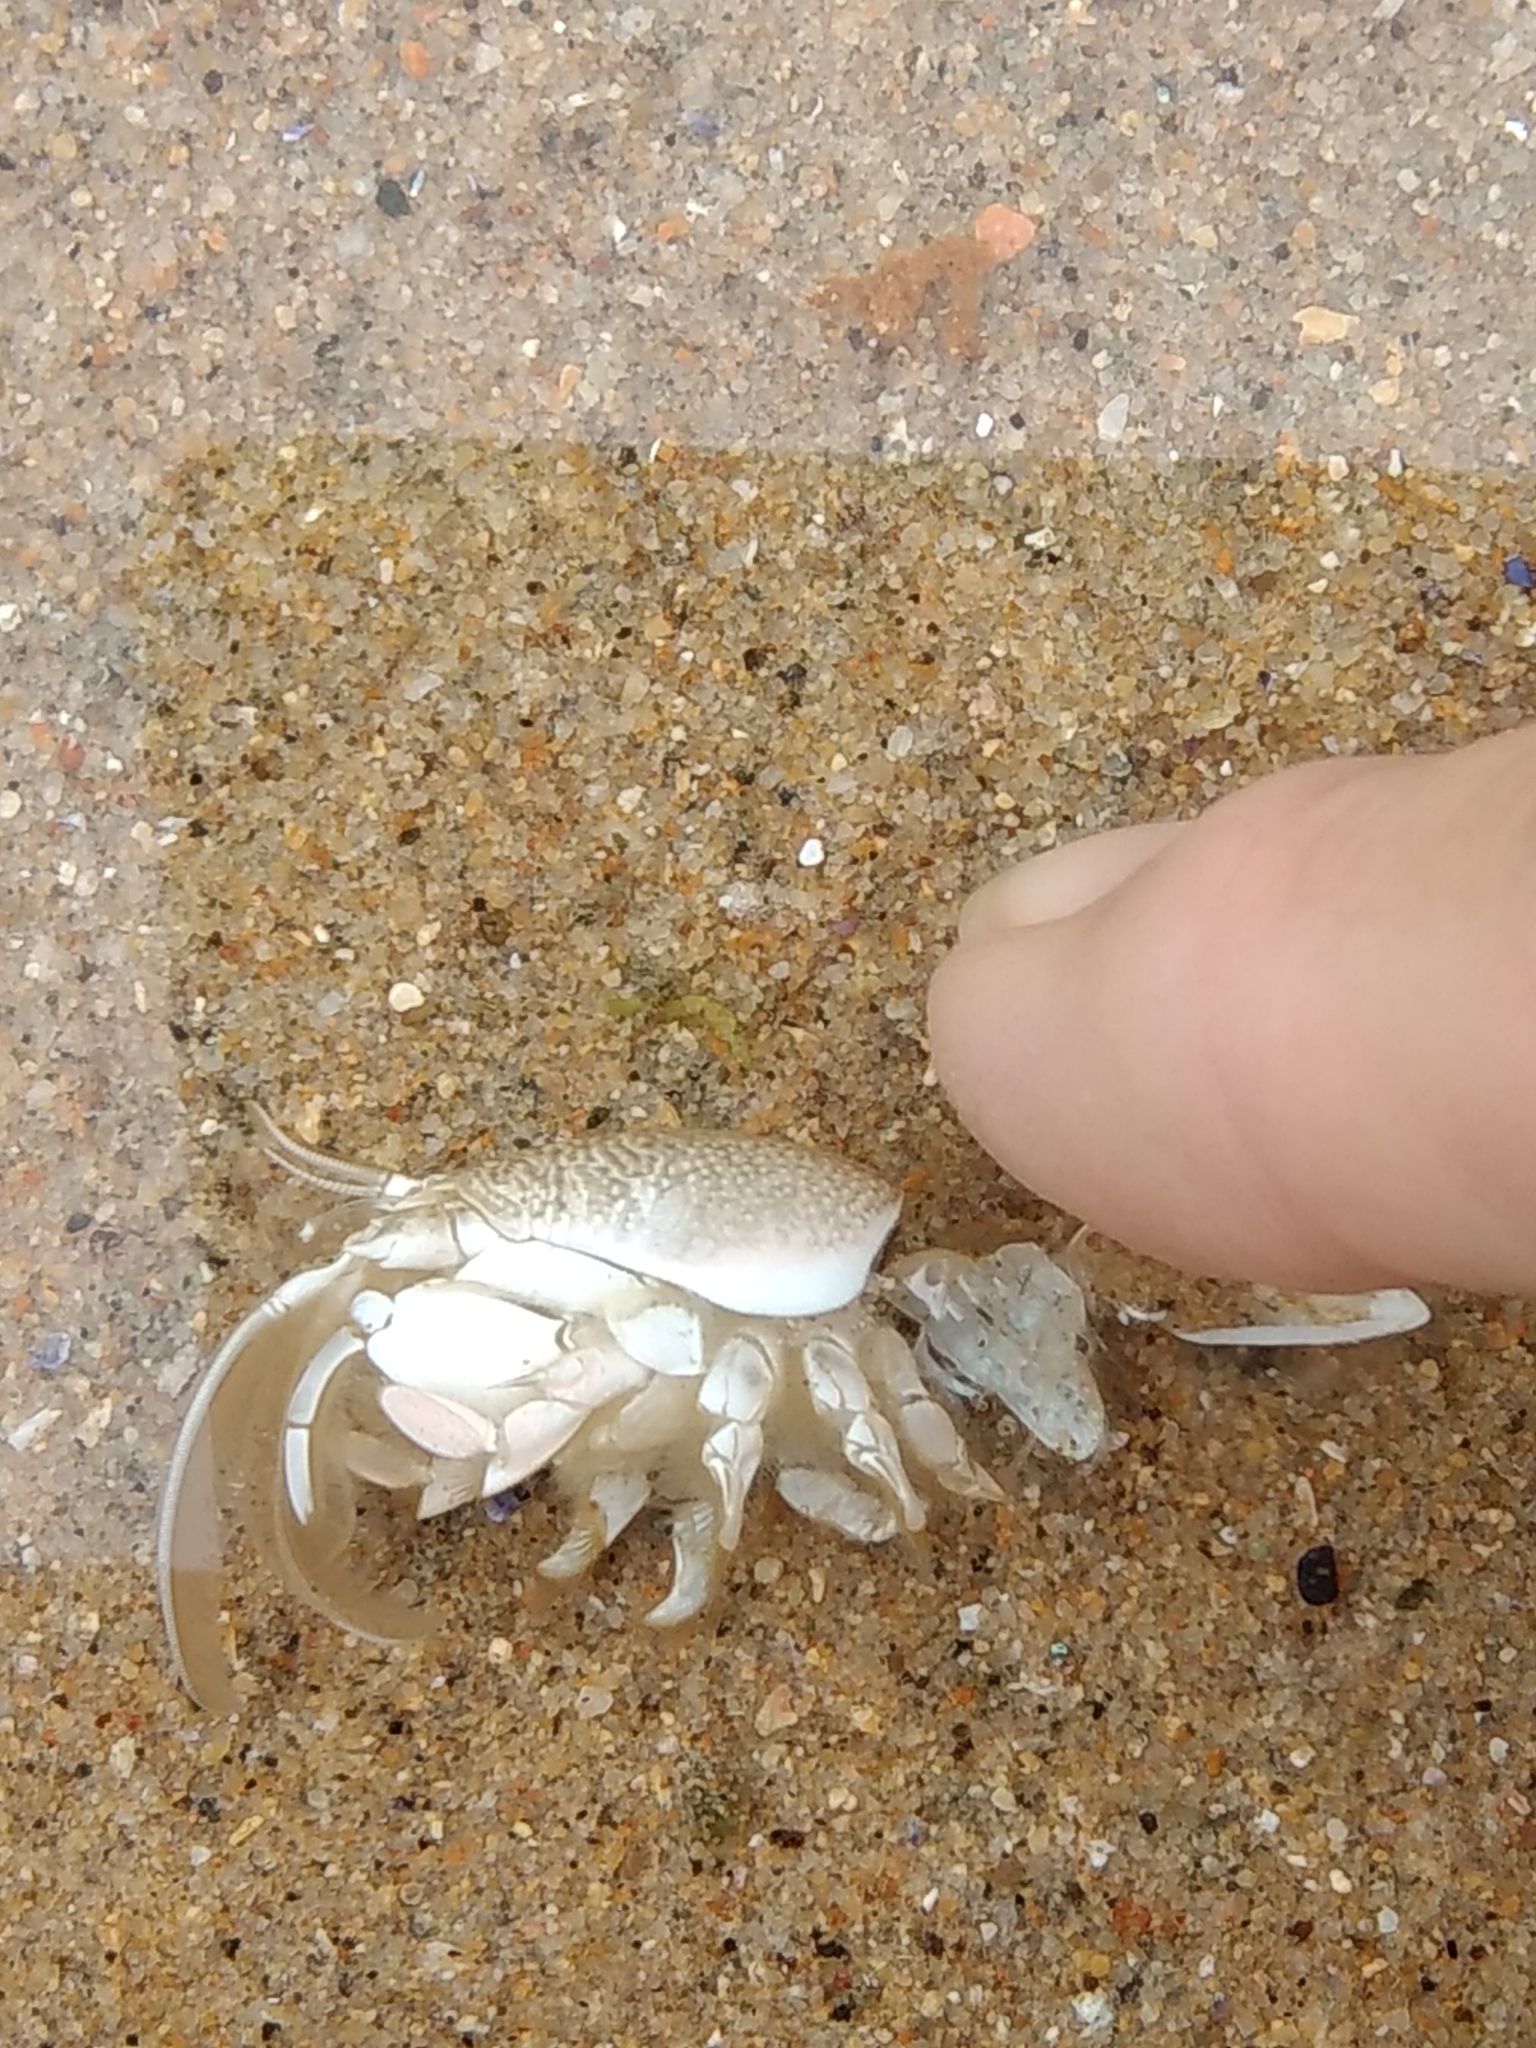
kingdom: Animalia
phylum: Arthropoda
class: Malacostraca
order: Decapoda
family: Hippidae
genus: Emerita
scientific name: Emerita analoga
